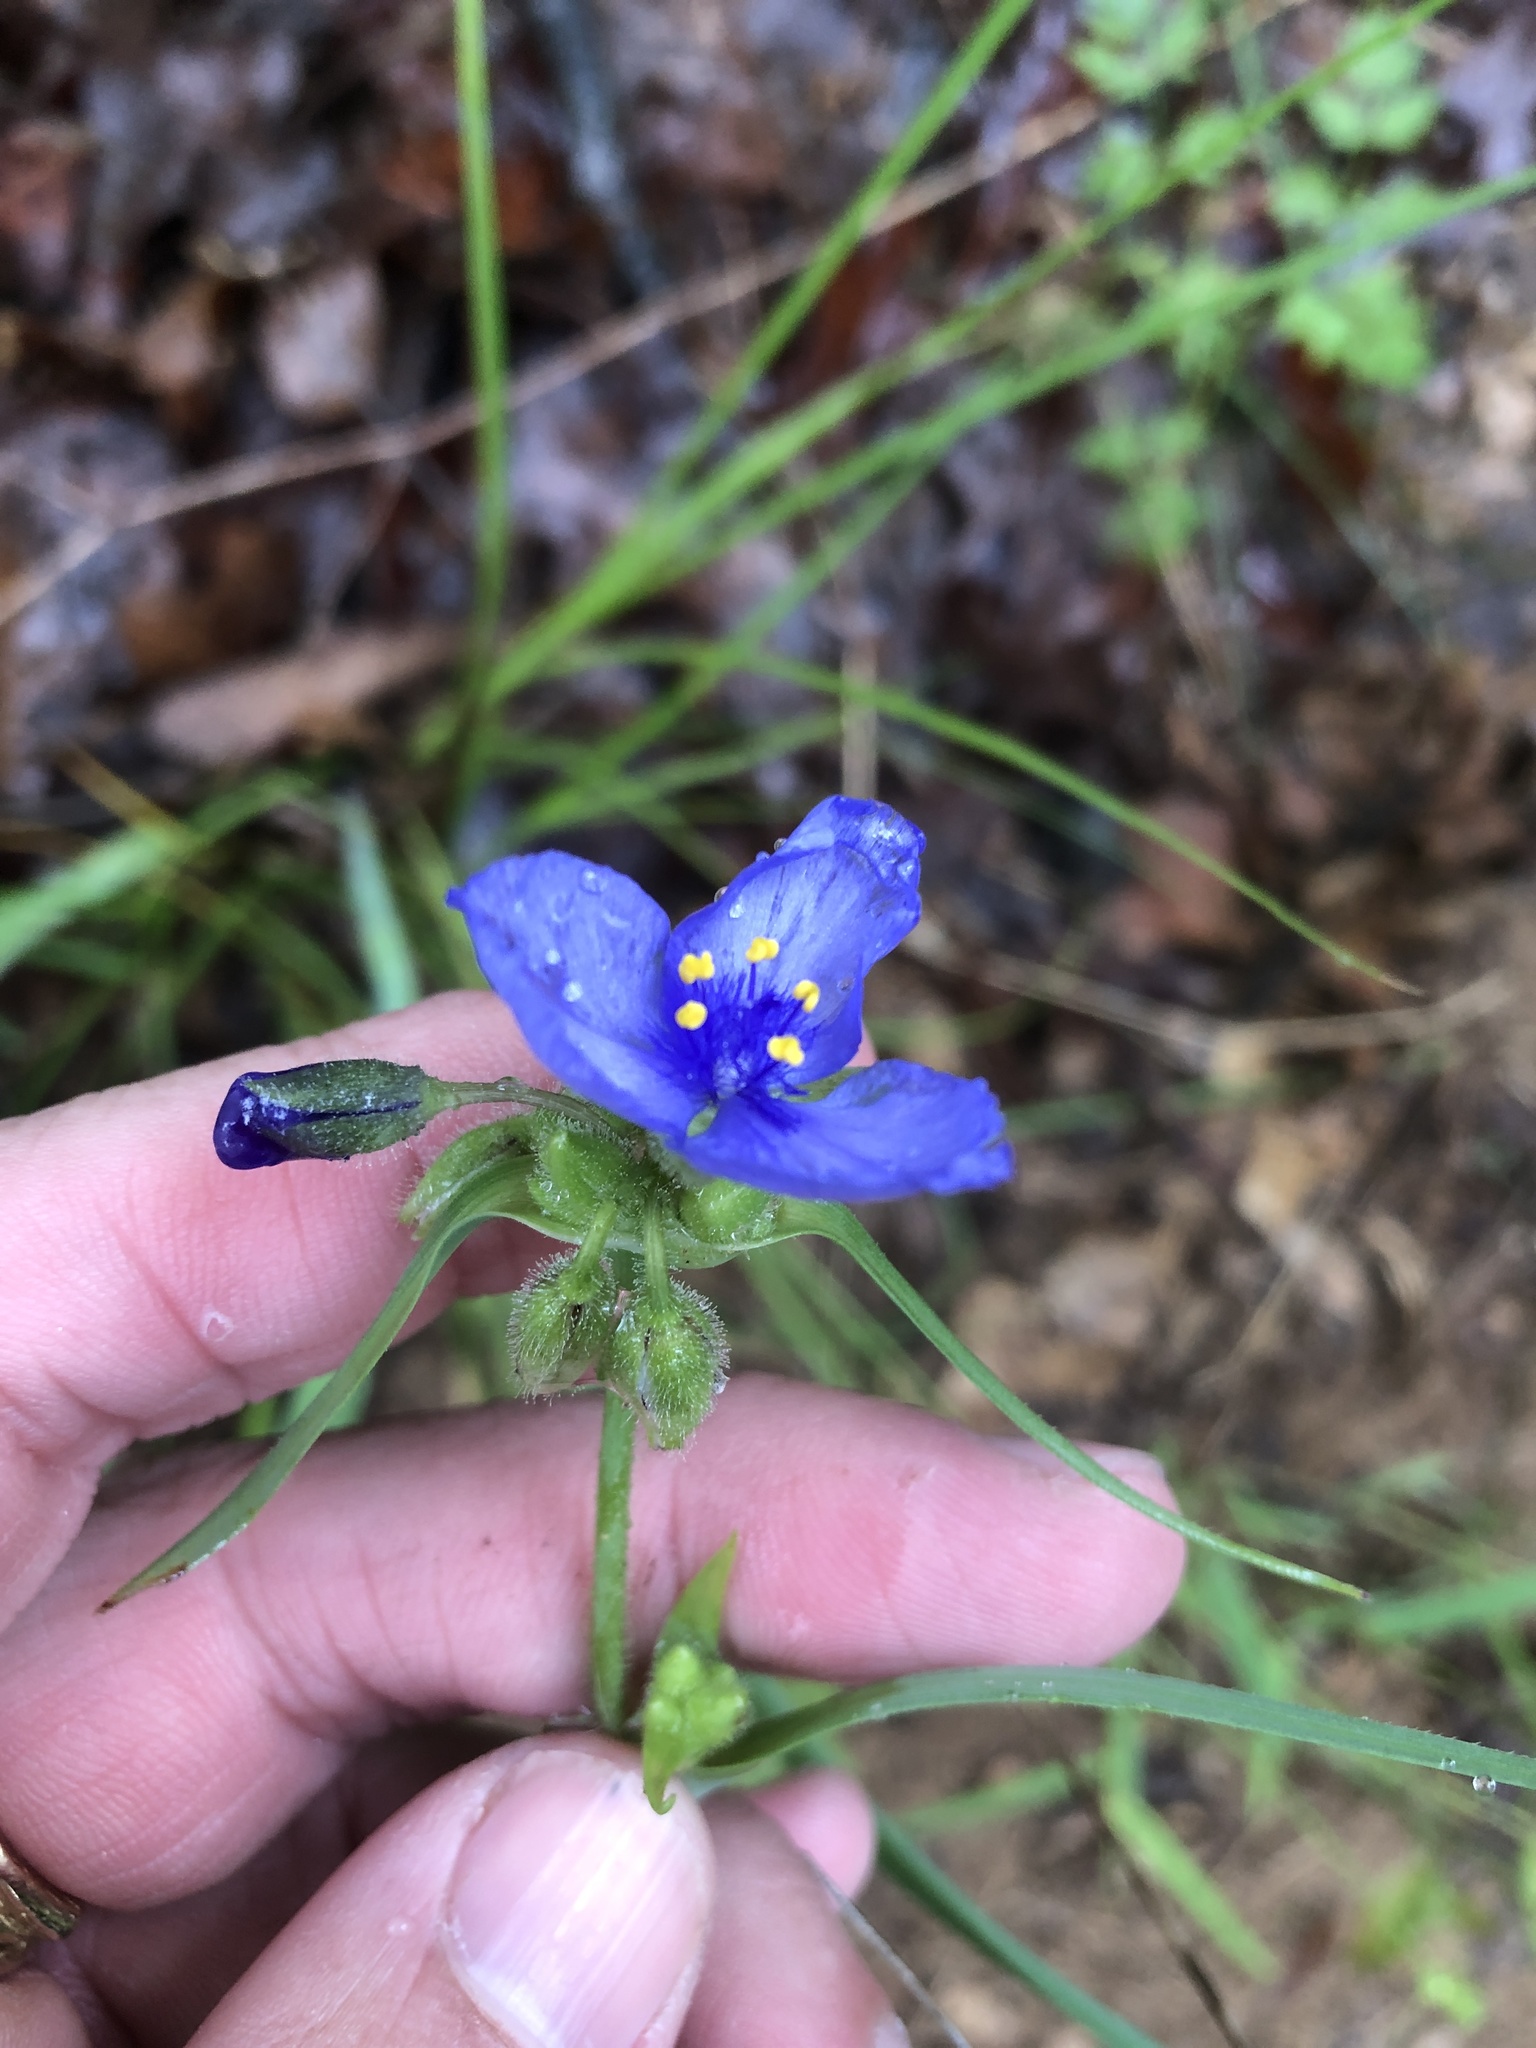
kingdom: Plantae
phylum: Tracheophyta
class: Liliopsida
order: Commelinales
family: Commelinaceae
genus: Tradescantia
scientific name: Tradescantia occidentalis
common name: Prairie spiderwort
